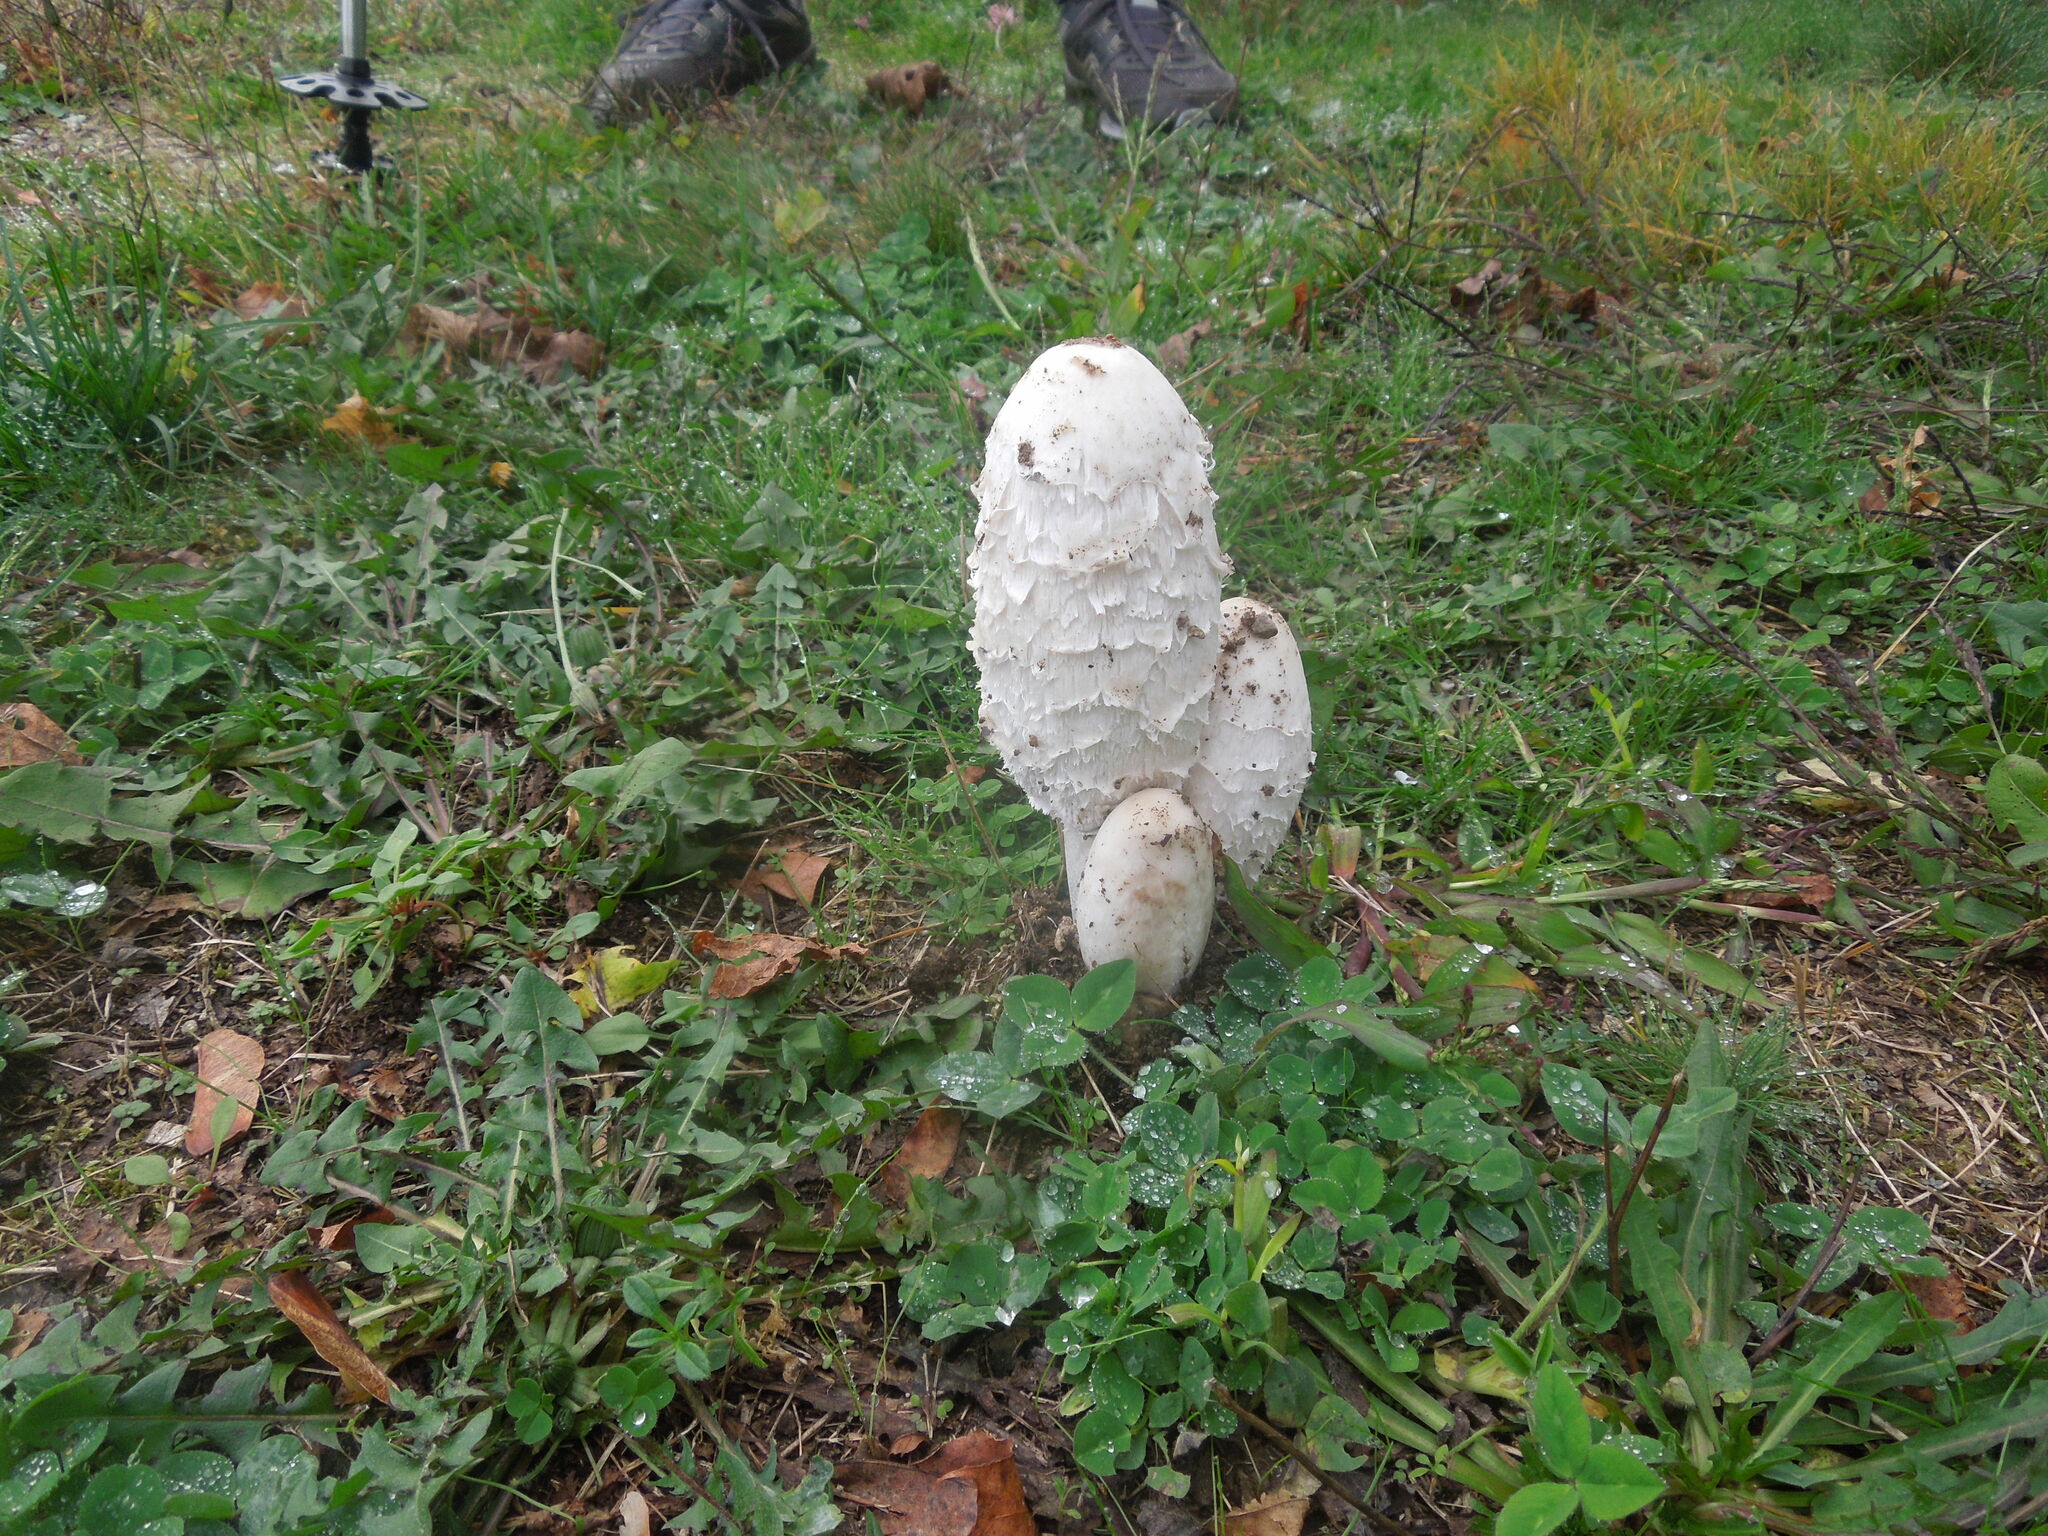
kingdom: Fungi
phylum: Basidiomycota
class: Agaricomycetes
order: Agaricales
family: Agaricaceae
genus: Coprinus
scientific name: Coprinus comatus
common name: Lawyer's wig
